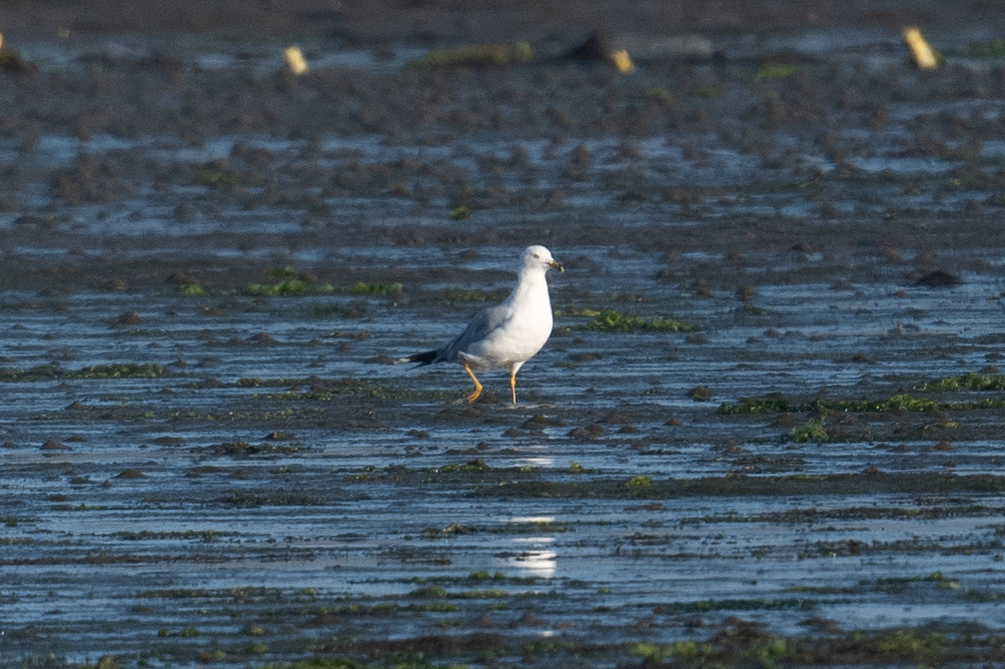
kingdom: Animalia
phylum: Chordata
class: Aves
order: Charadriiformes
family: Laridae
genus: Larus
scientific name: Larus delawarensis
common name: Ring-billed gull
